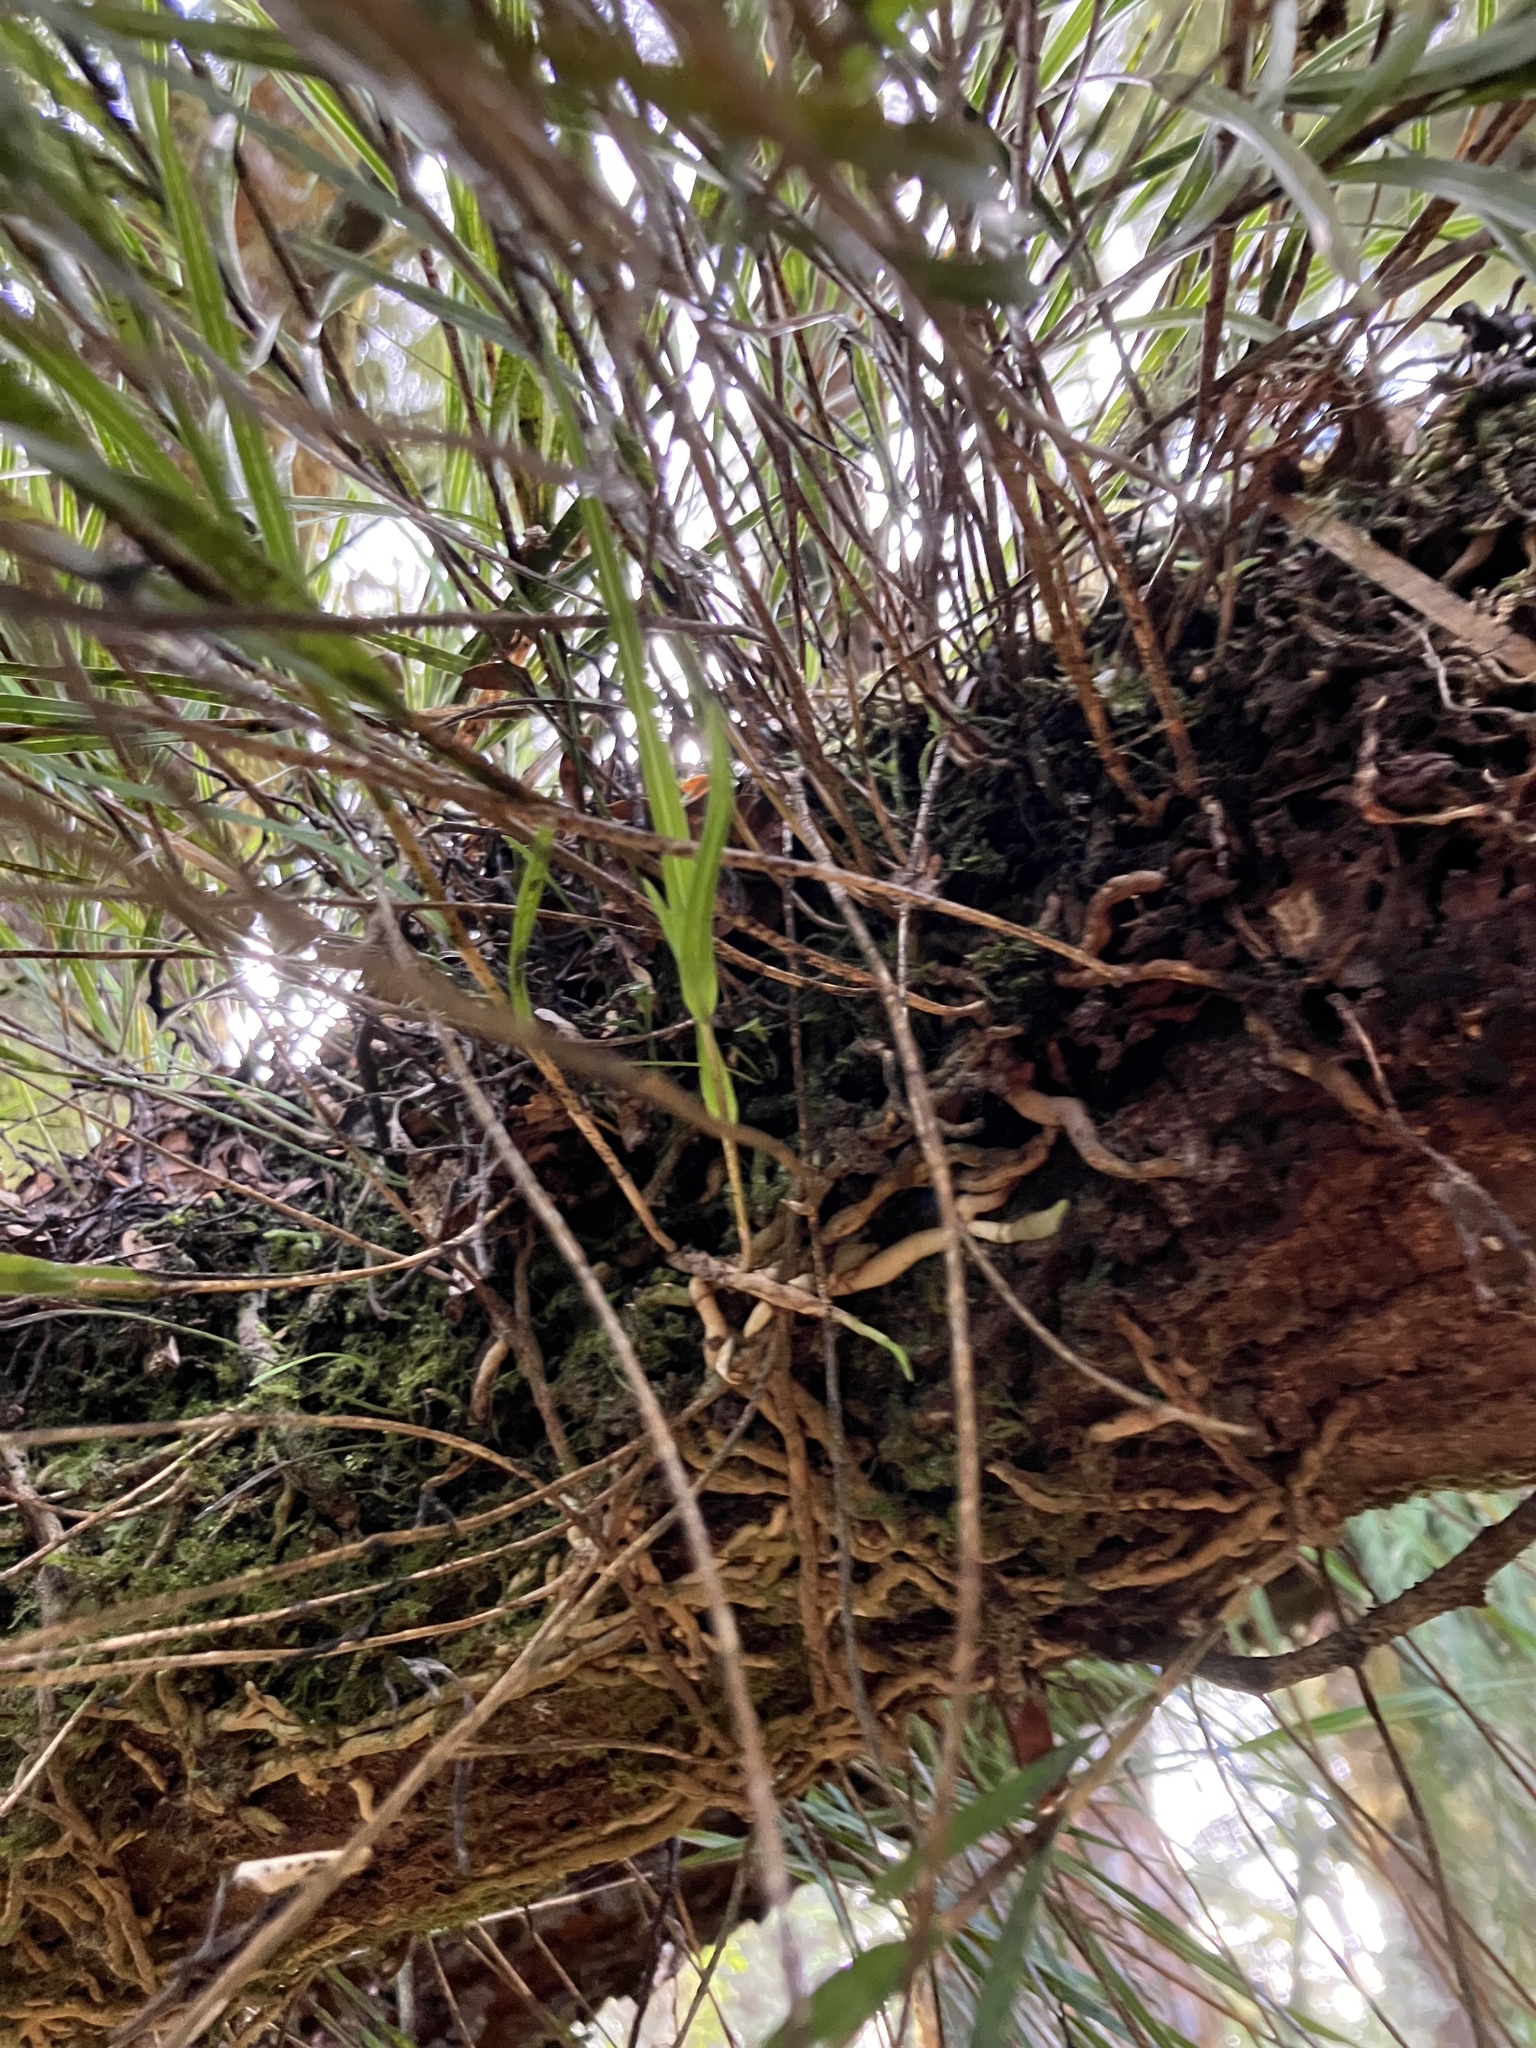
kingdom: Plantae
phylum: Tracheophyta
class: Liliopsida
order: Asparagales
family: Orchidaceae
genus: Earina
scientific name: Earina mucronata
